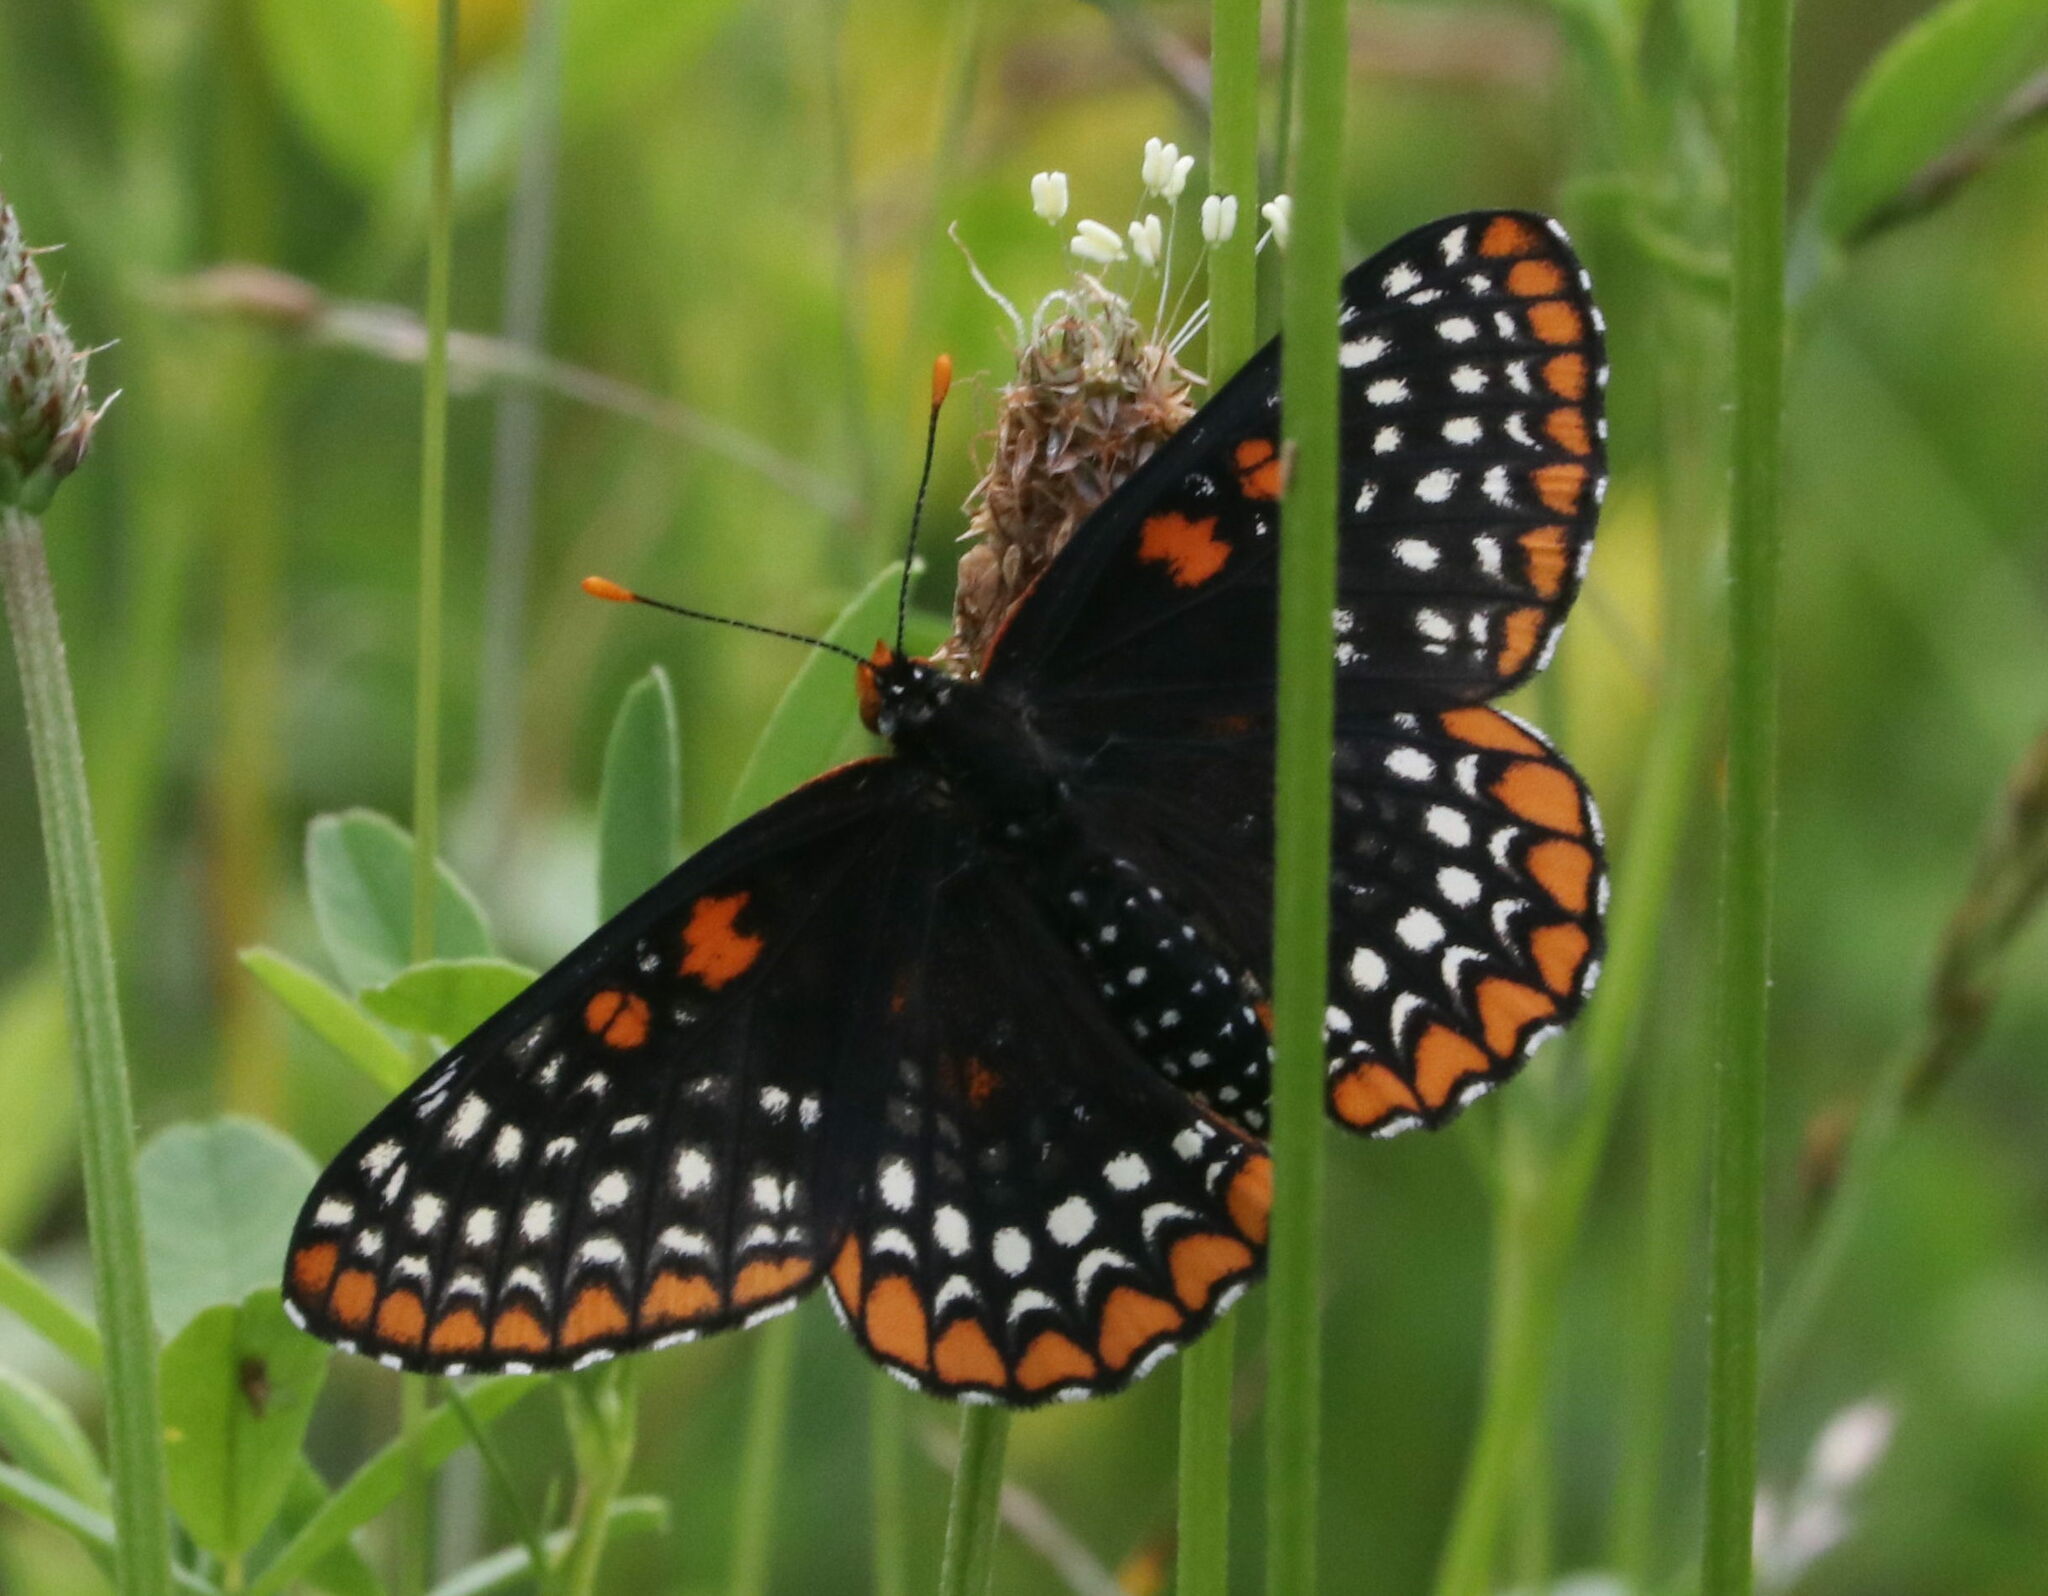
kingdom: Animalia
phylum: Arthropoda
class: Insecta
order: Lepidoptera
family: Nymphalidae
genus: Euphydryas
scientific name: Euphydryas phaeton
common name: Baltimore checkerspot
